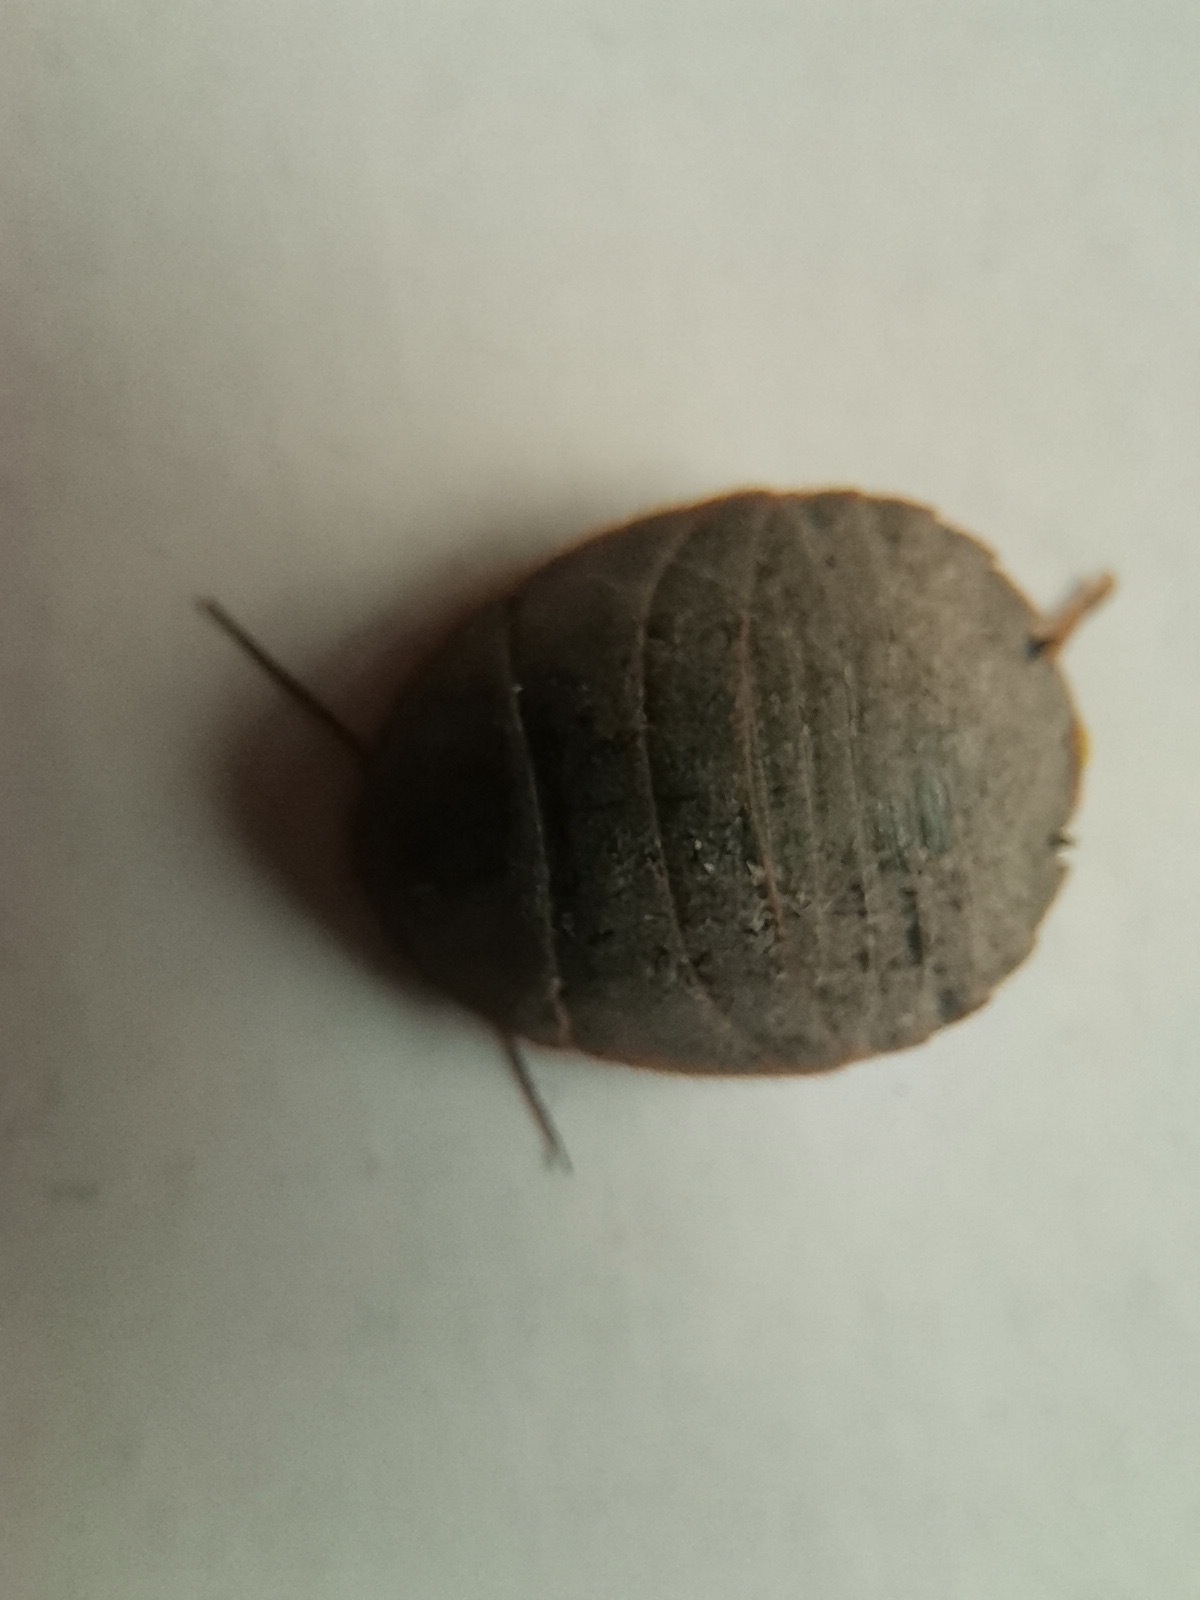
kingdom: Animalia
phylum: Arthropoda
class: Insecta
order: Blattodea
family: Corydiidae
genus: Homoeogamia
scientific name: Homoeogamia mexicana
